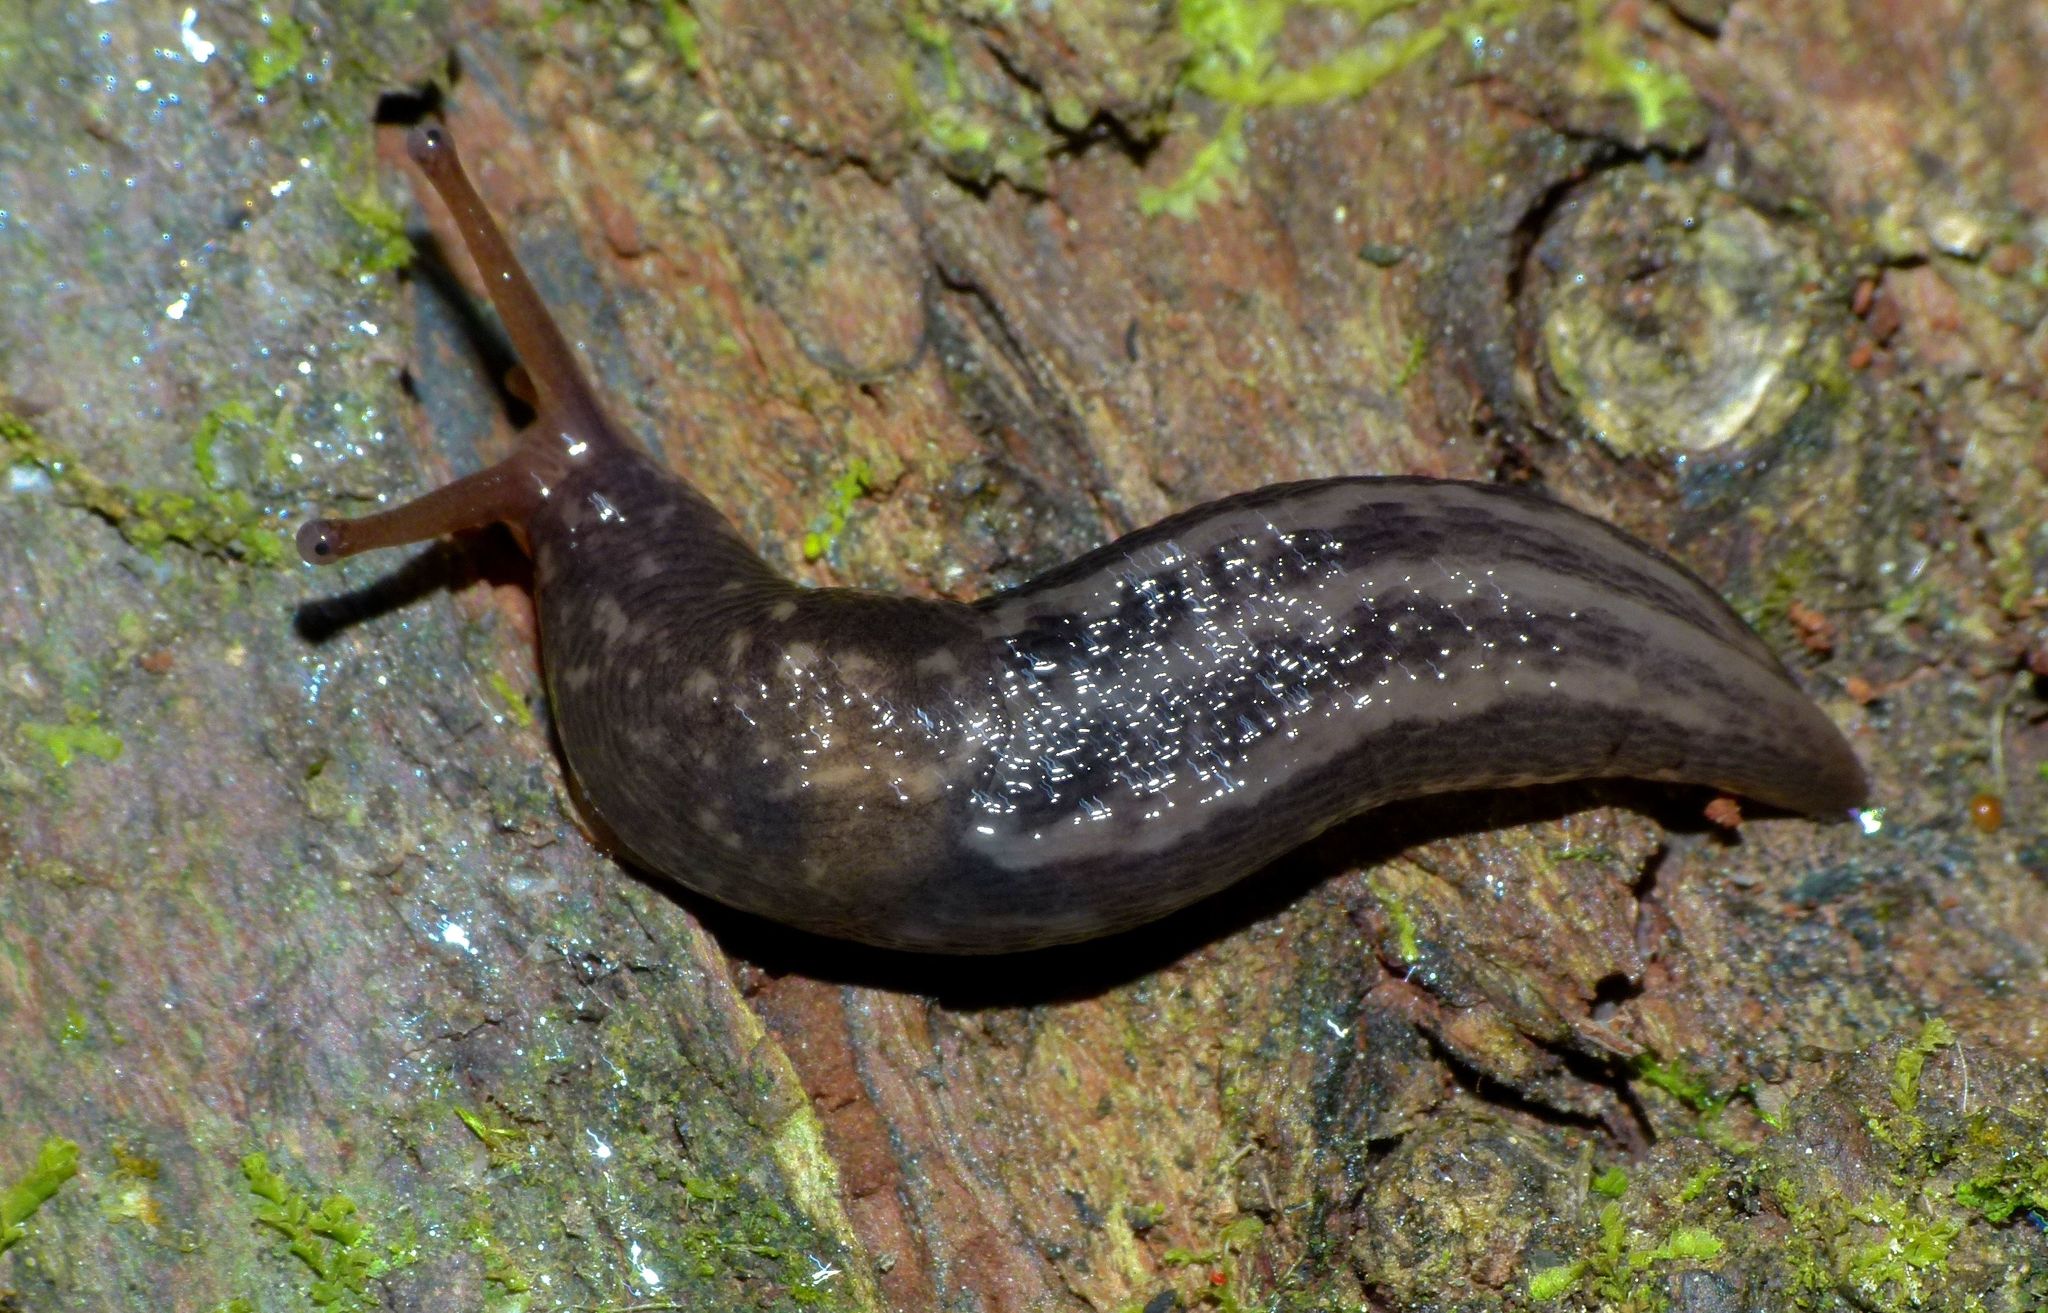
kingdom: Animalia
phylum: Mollusca
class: Gastropoda
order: Stylommatophora
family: Limacidae
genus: Limax
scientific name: Limax maximus
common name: Great grey slug
